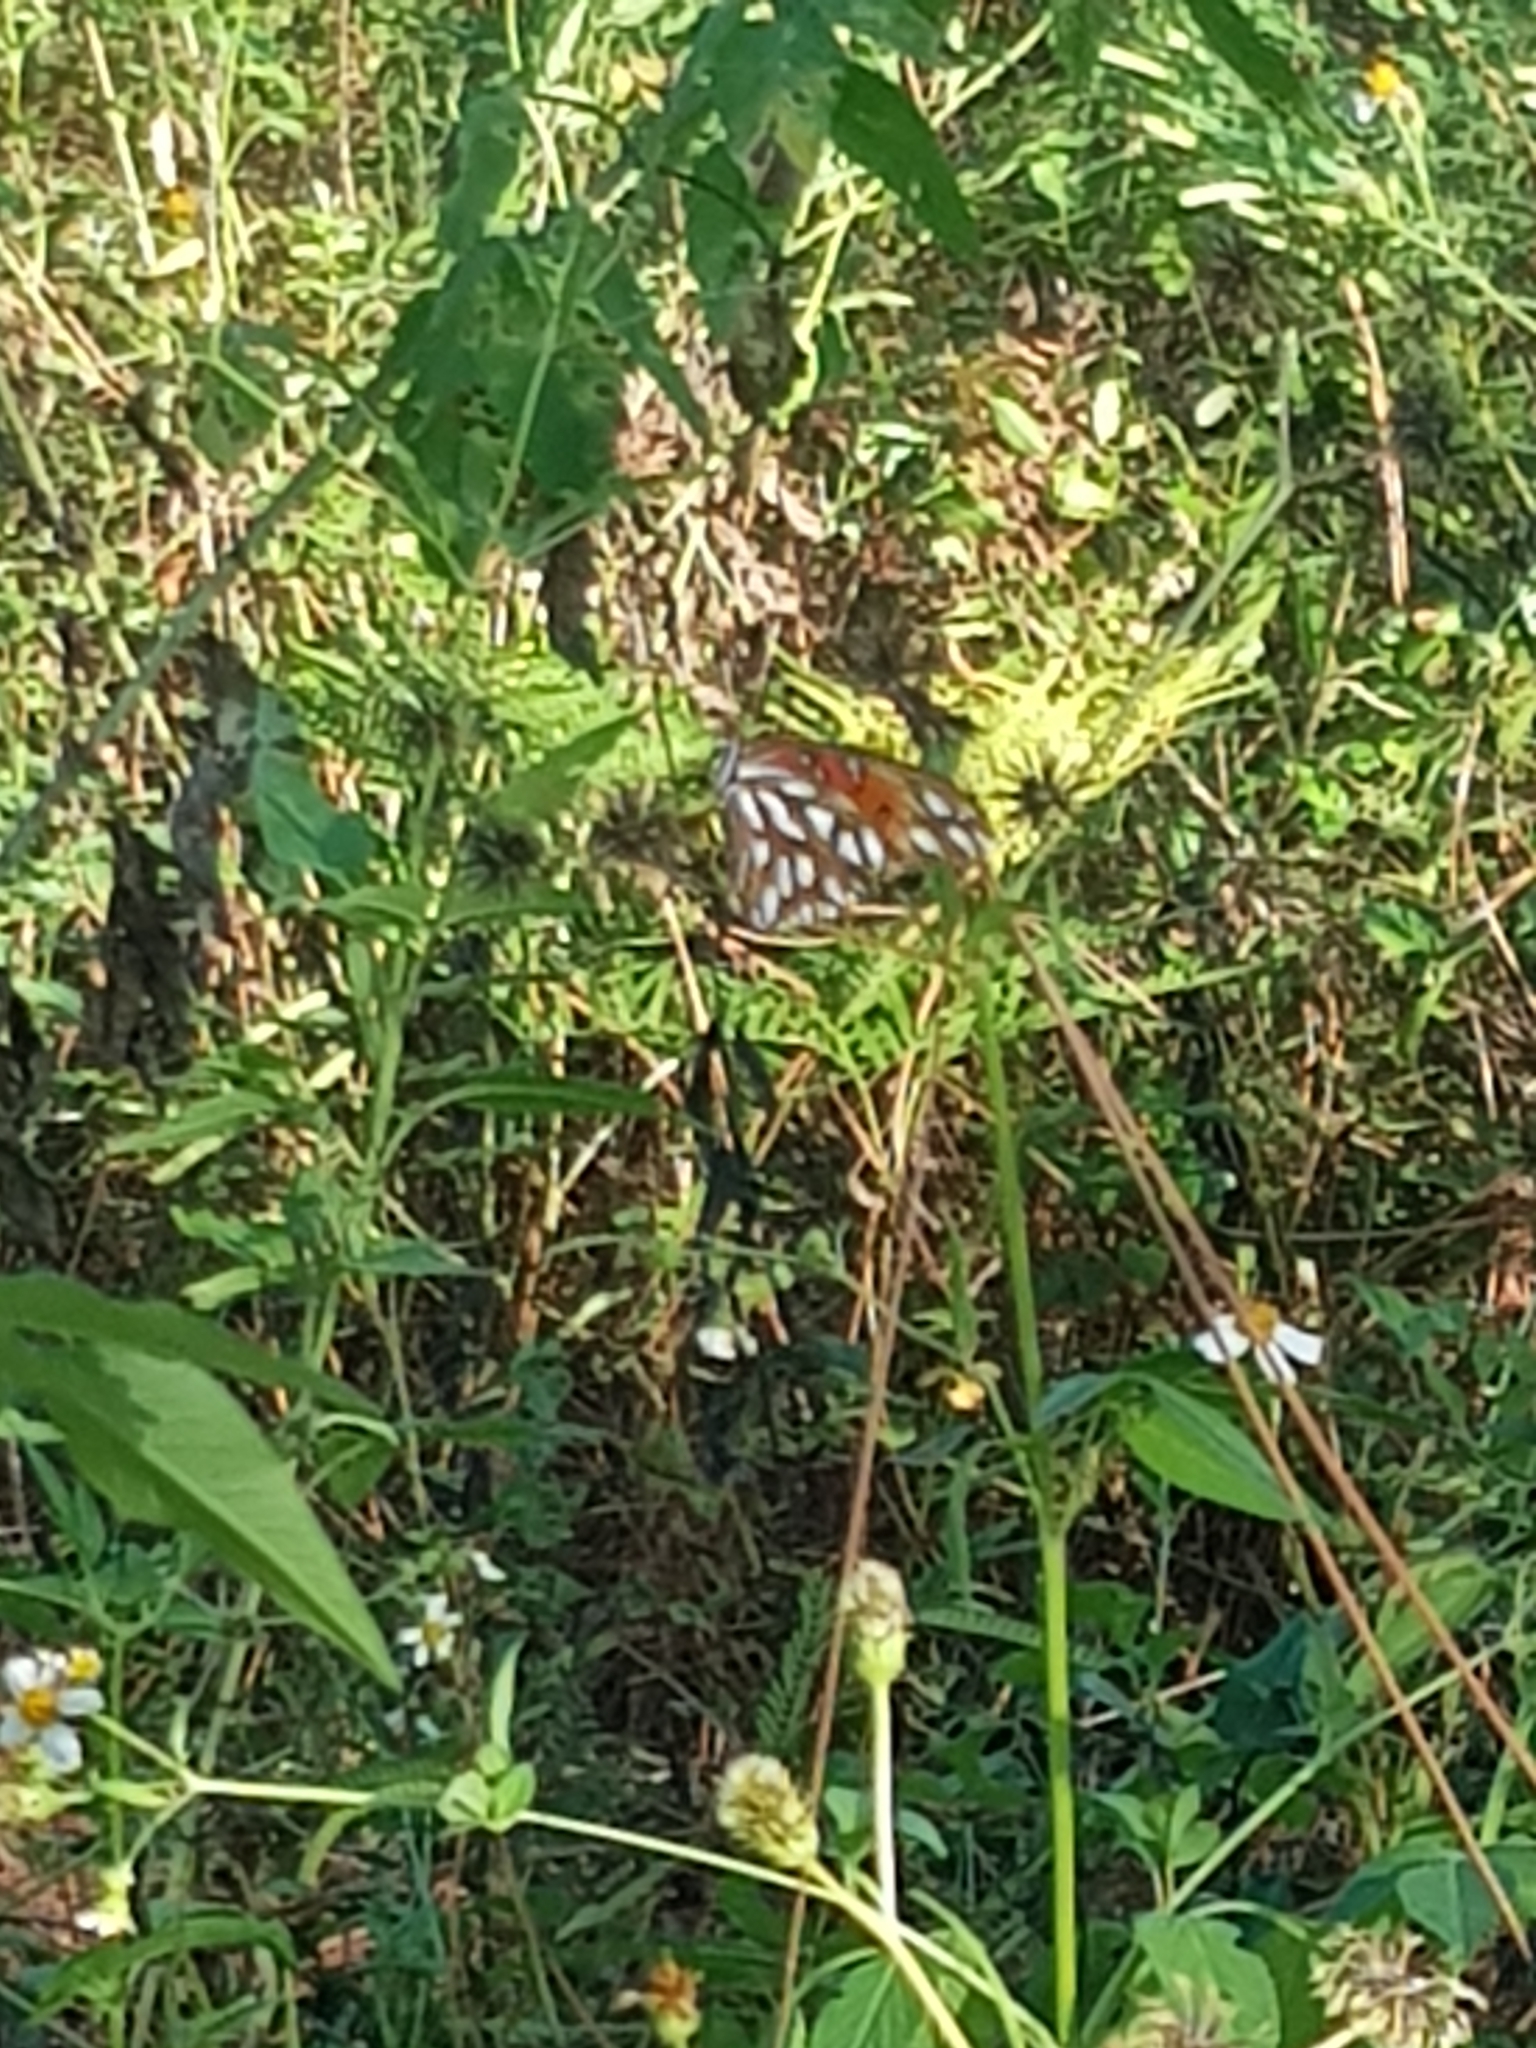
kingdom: Animalia
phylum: Arthropoda
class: Insecta
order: Lepidoptera
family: Nymphalidae
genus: Dione
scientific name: Dione vanillae
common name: Gulf fritillary
